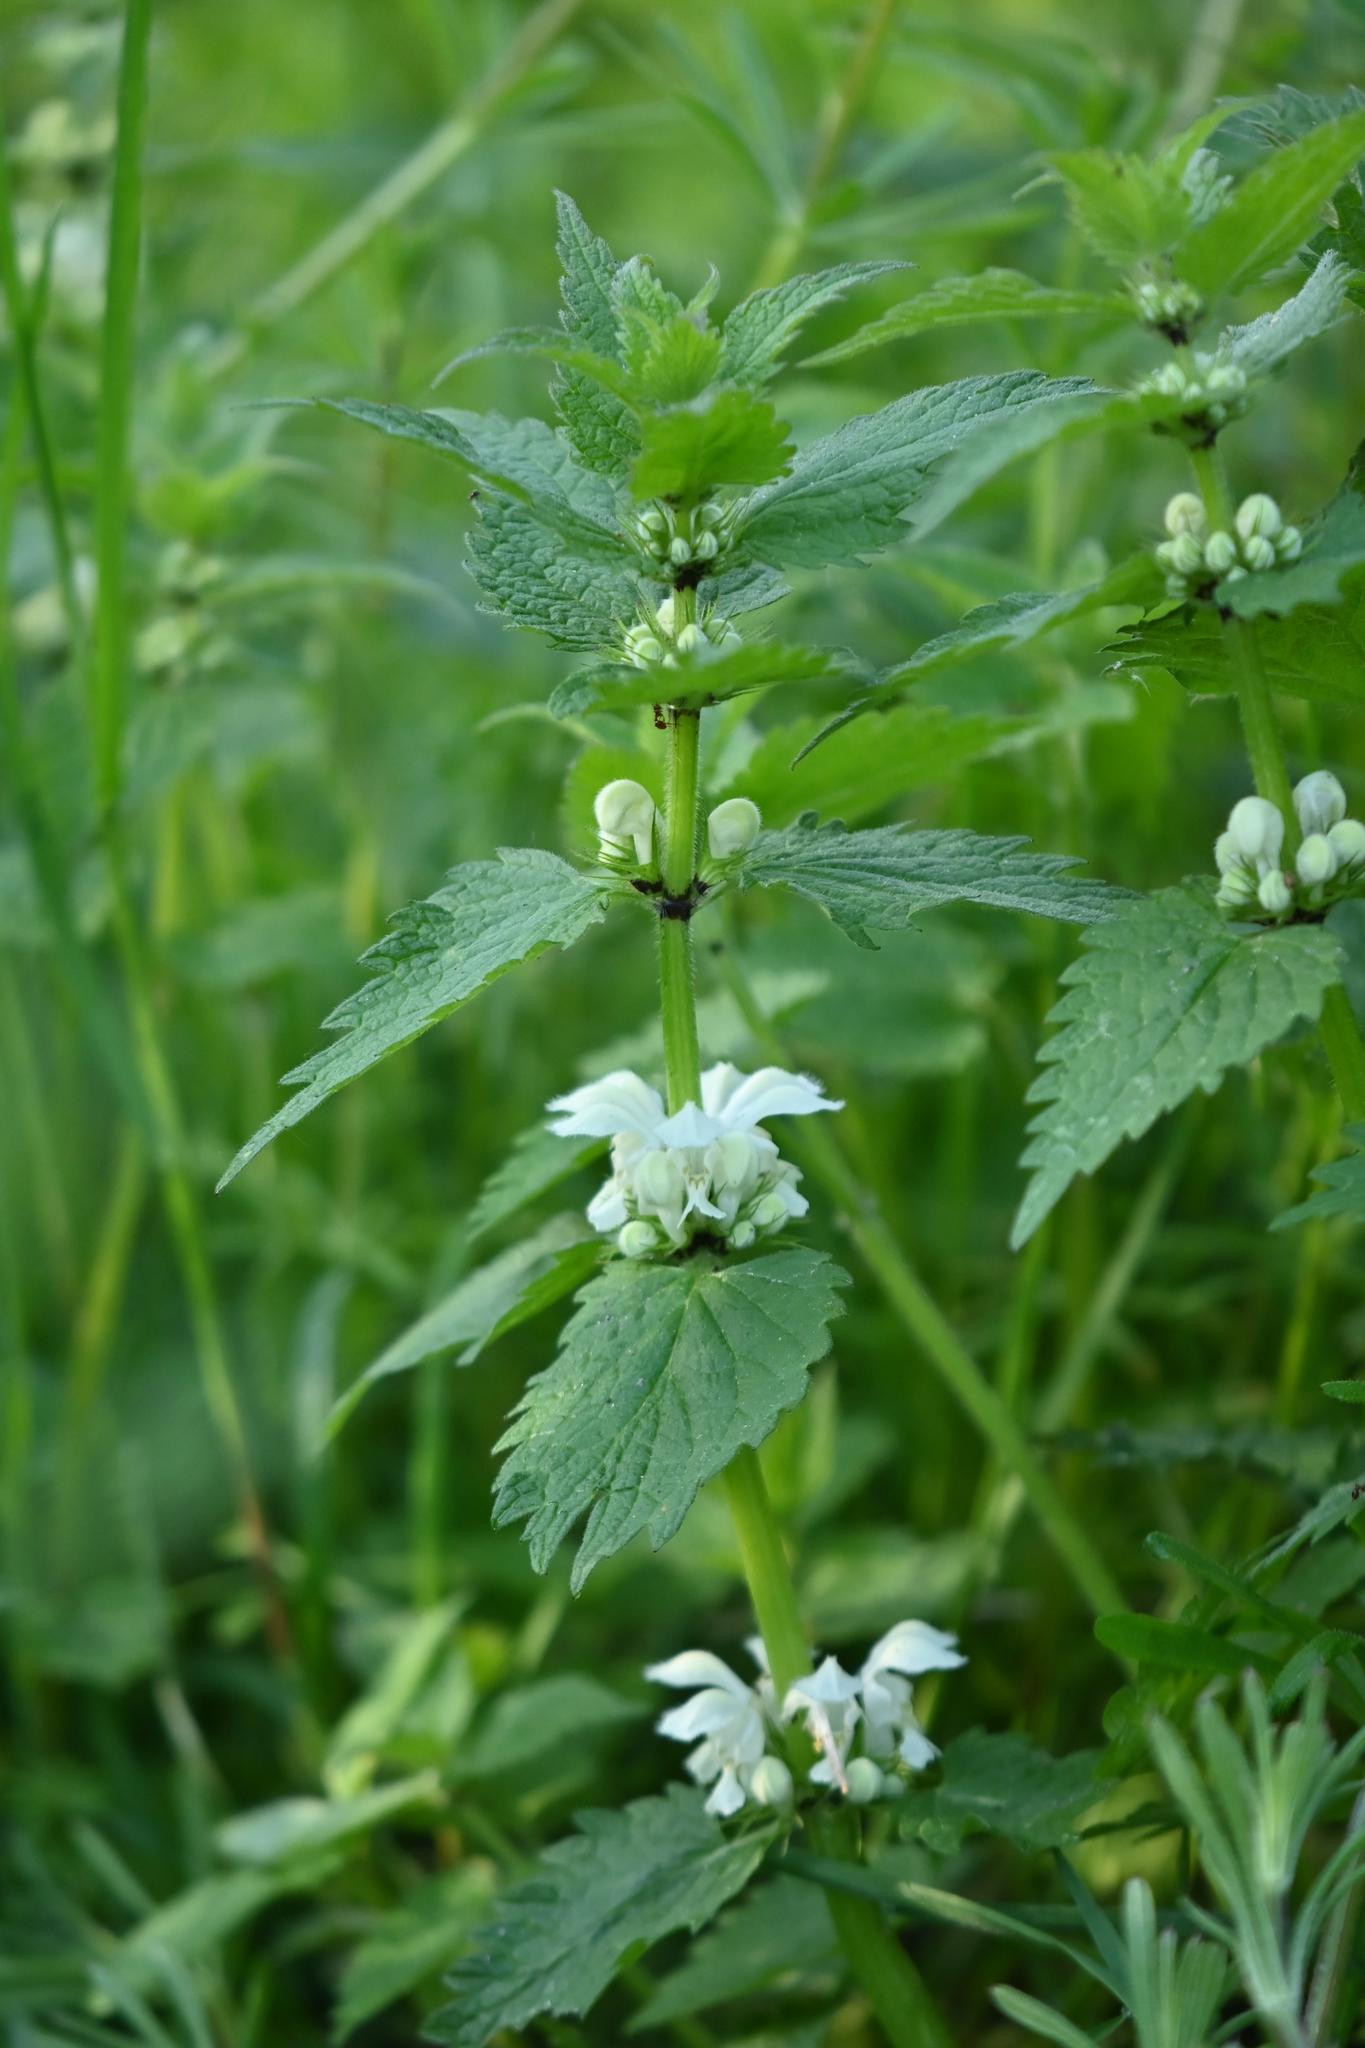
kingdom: Plantae
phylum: Tracheophyta
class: Magnoliopsida
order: Lamiales
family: Lamiaceae
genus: Lamium
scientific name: Lamium album
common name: White dead-nettle
